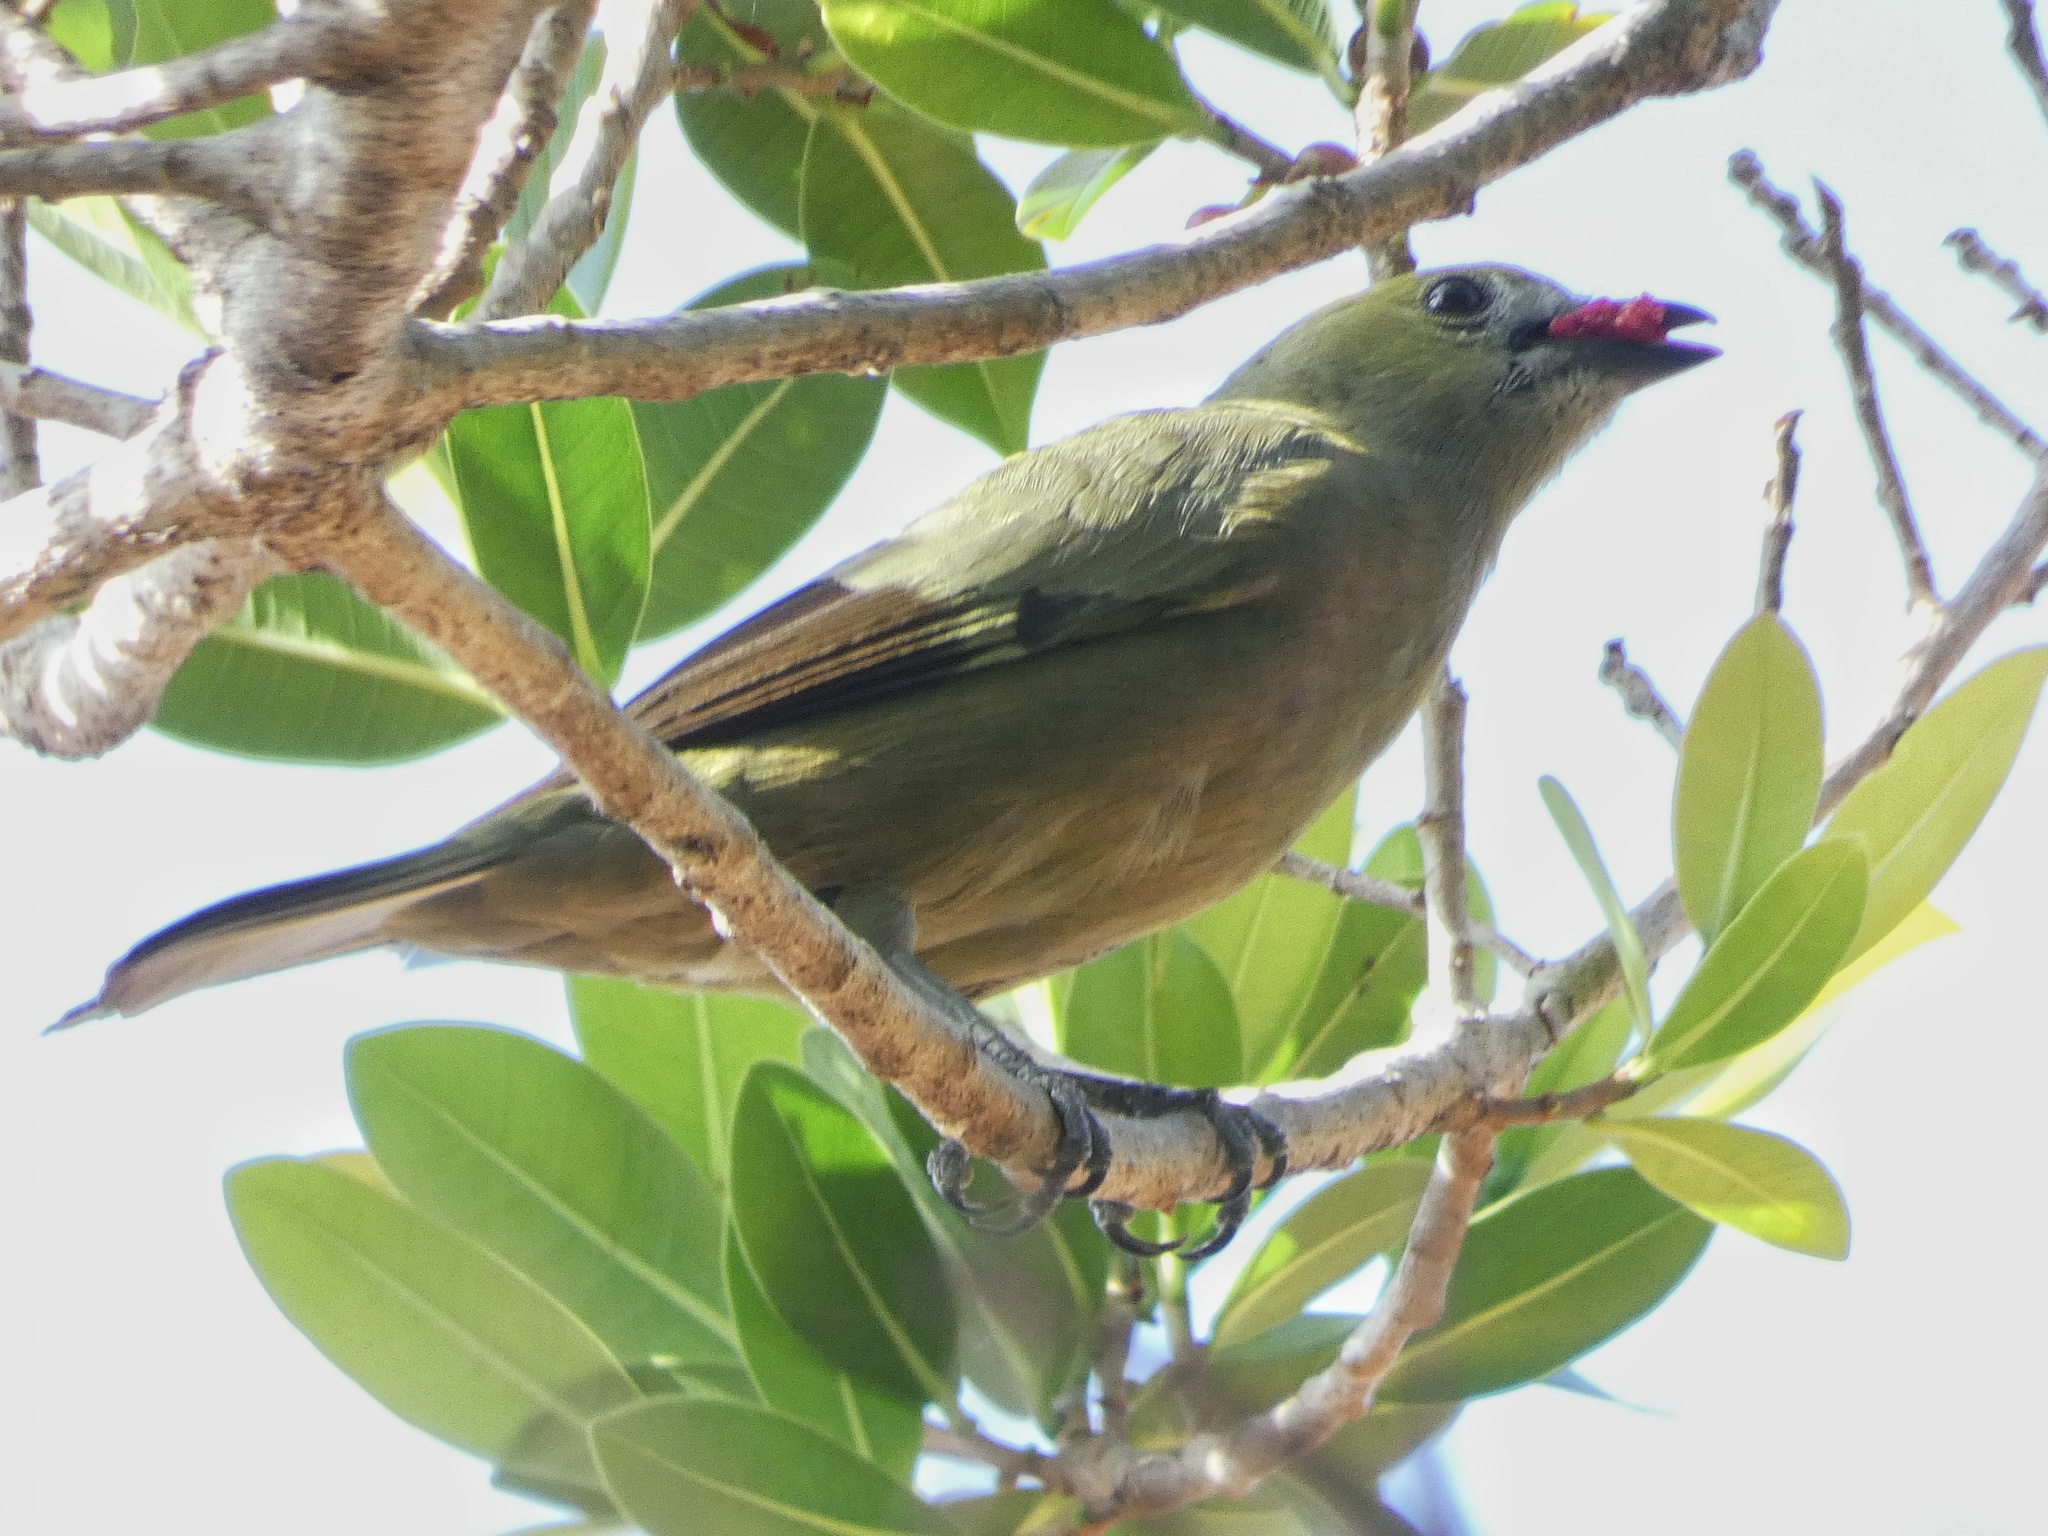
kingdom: Animalia
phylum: Chordata
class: Aves
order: Passeriformes
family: Thraupidae
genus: Thraupis
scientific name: Thraupis palmarum
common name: Palm tanager
